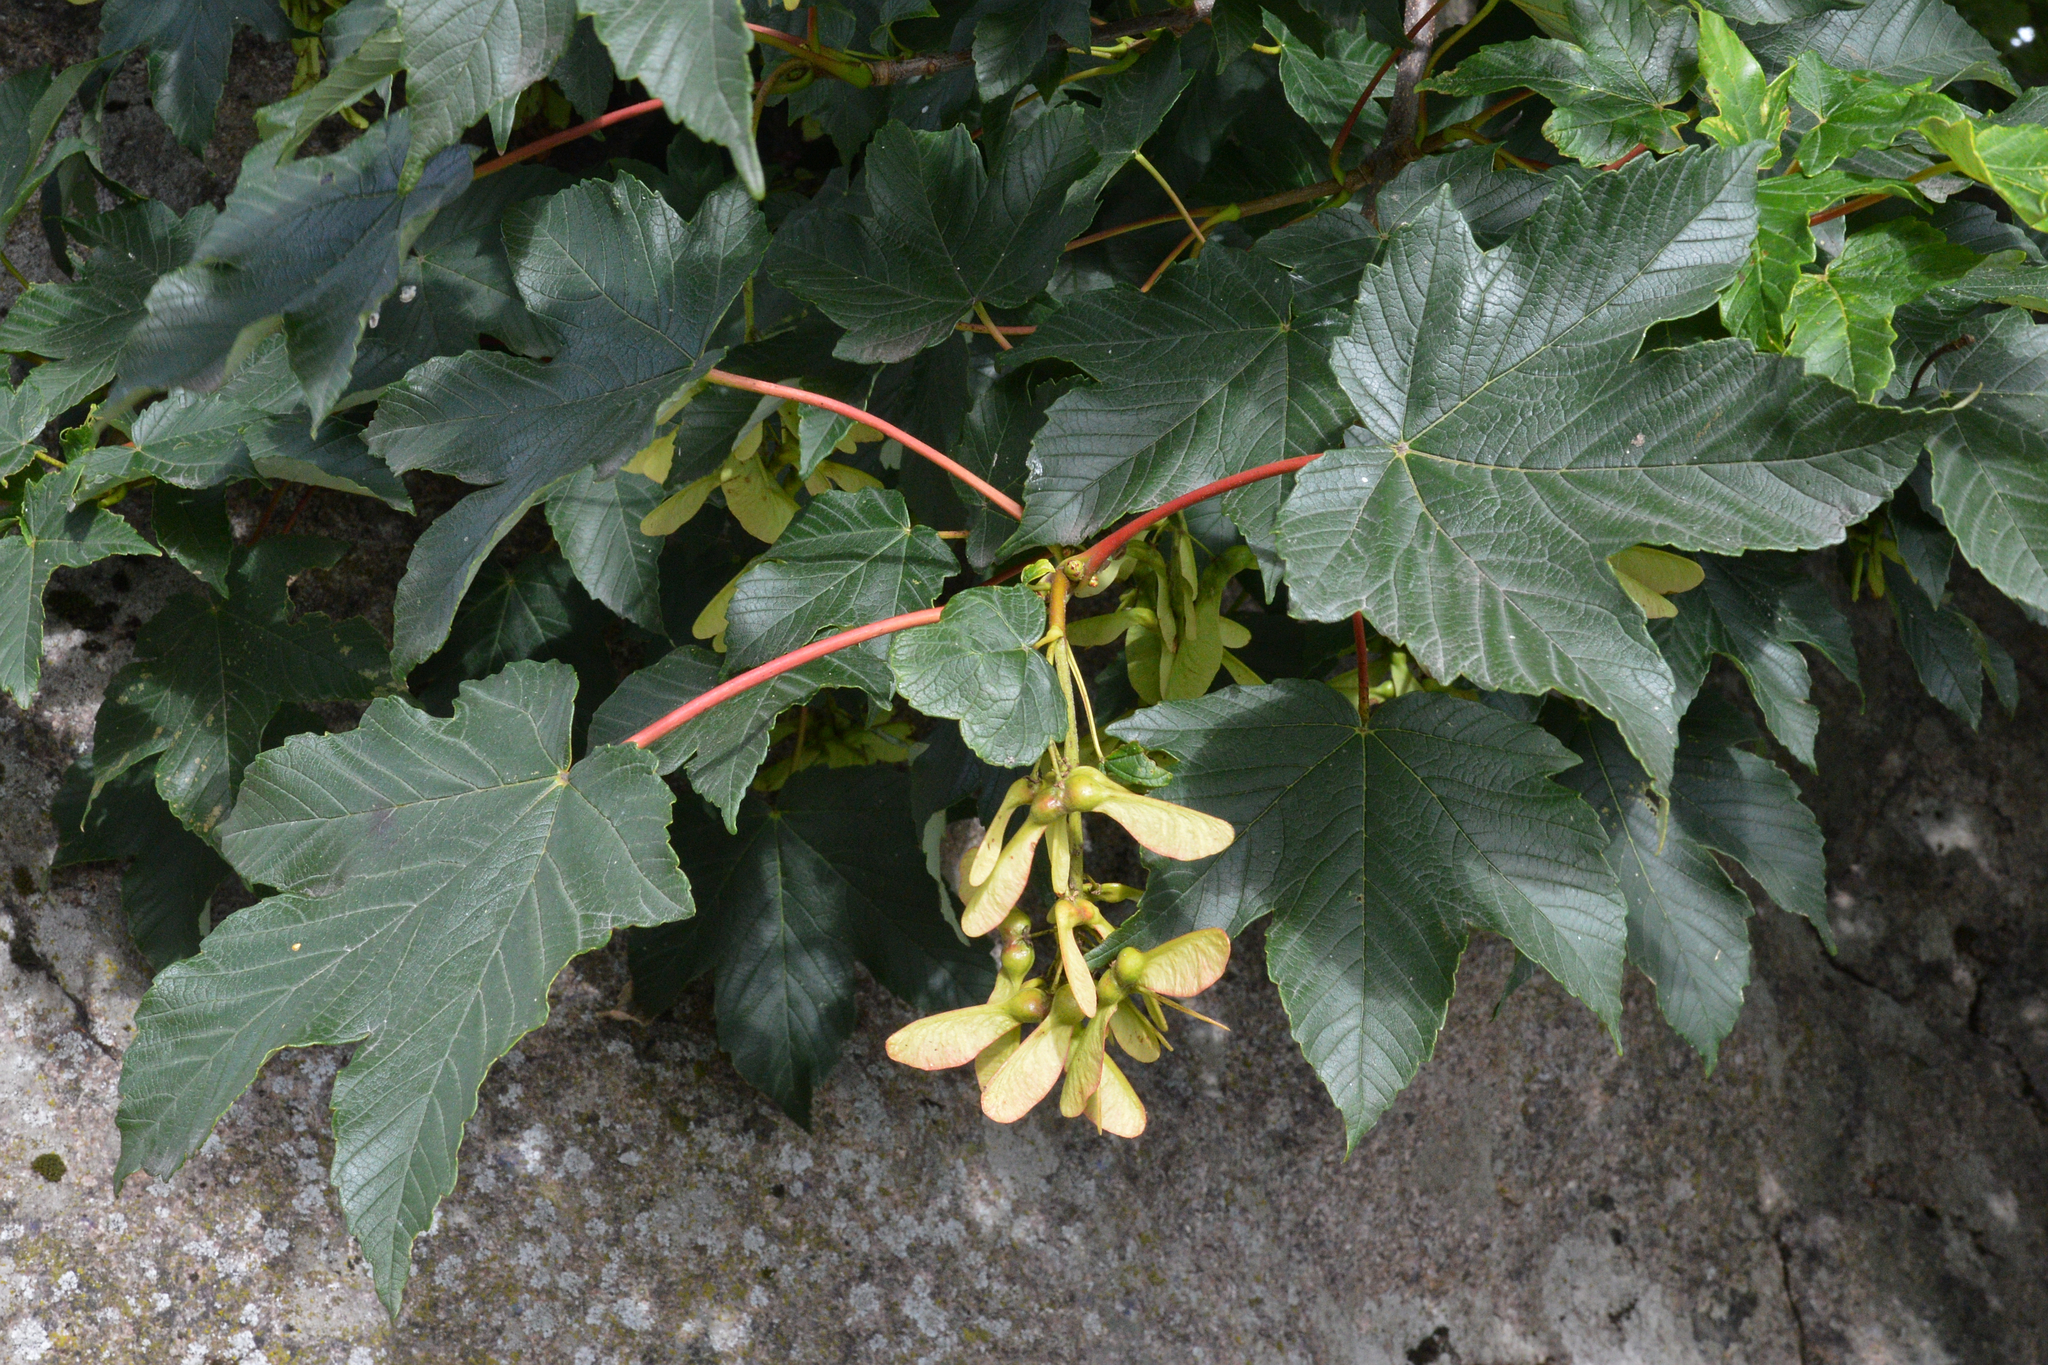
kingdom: Plantae
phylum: Tracheophyta
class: Magnoliopsida
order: Sapindales
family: Sapindaceae
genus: Acer
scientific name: Acer pseudoplatanus
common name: Sycamore
